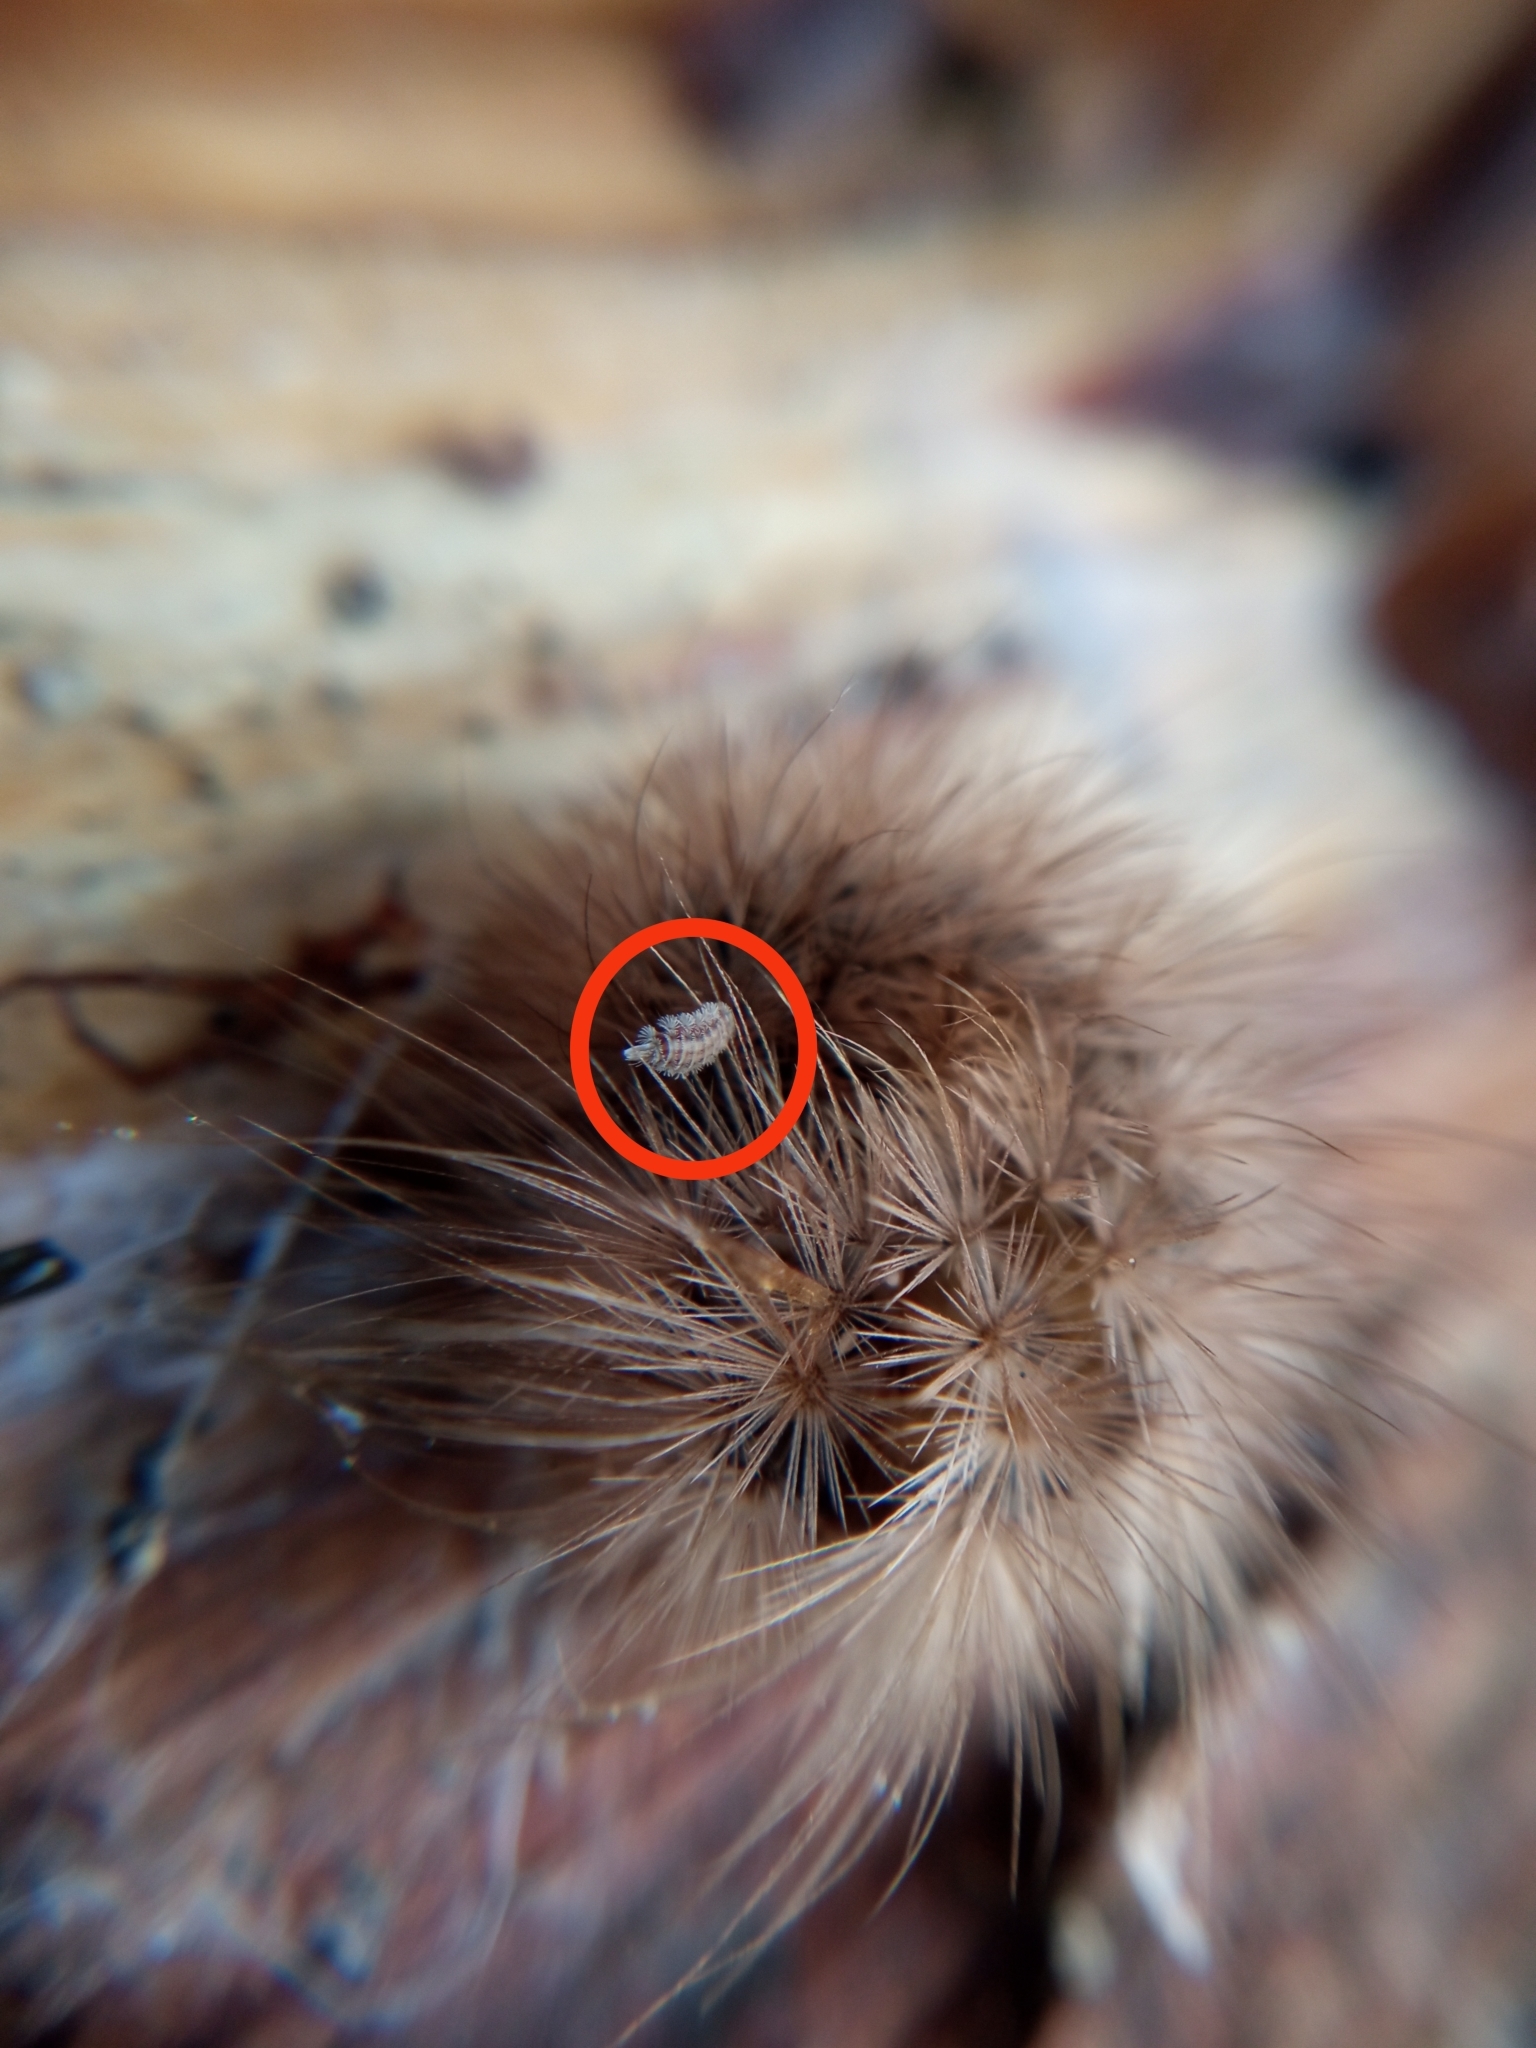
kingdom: Animalia
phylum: Arthropoda
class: Diplopoda
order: Polyxenida
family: Polyxenidae
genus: Polyxenus
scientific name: Polyxenus lagurus
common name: Bristly millipede
